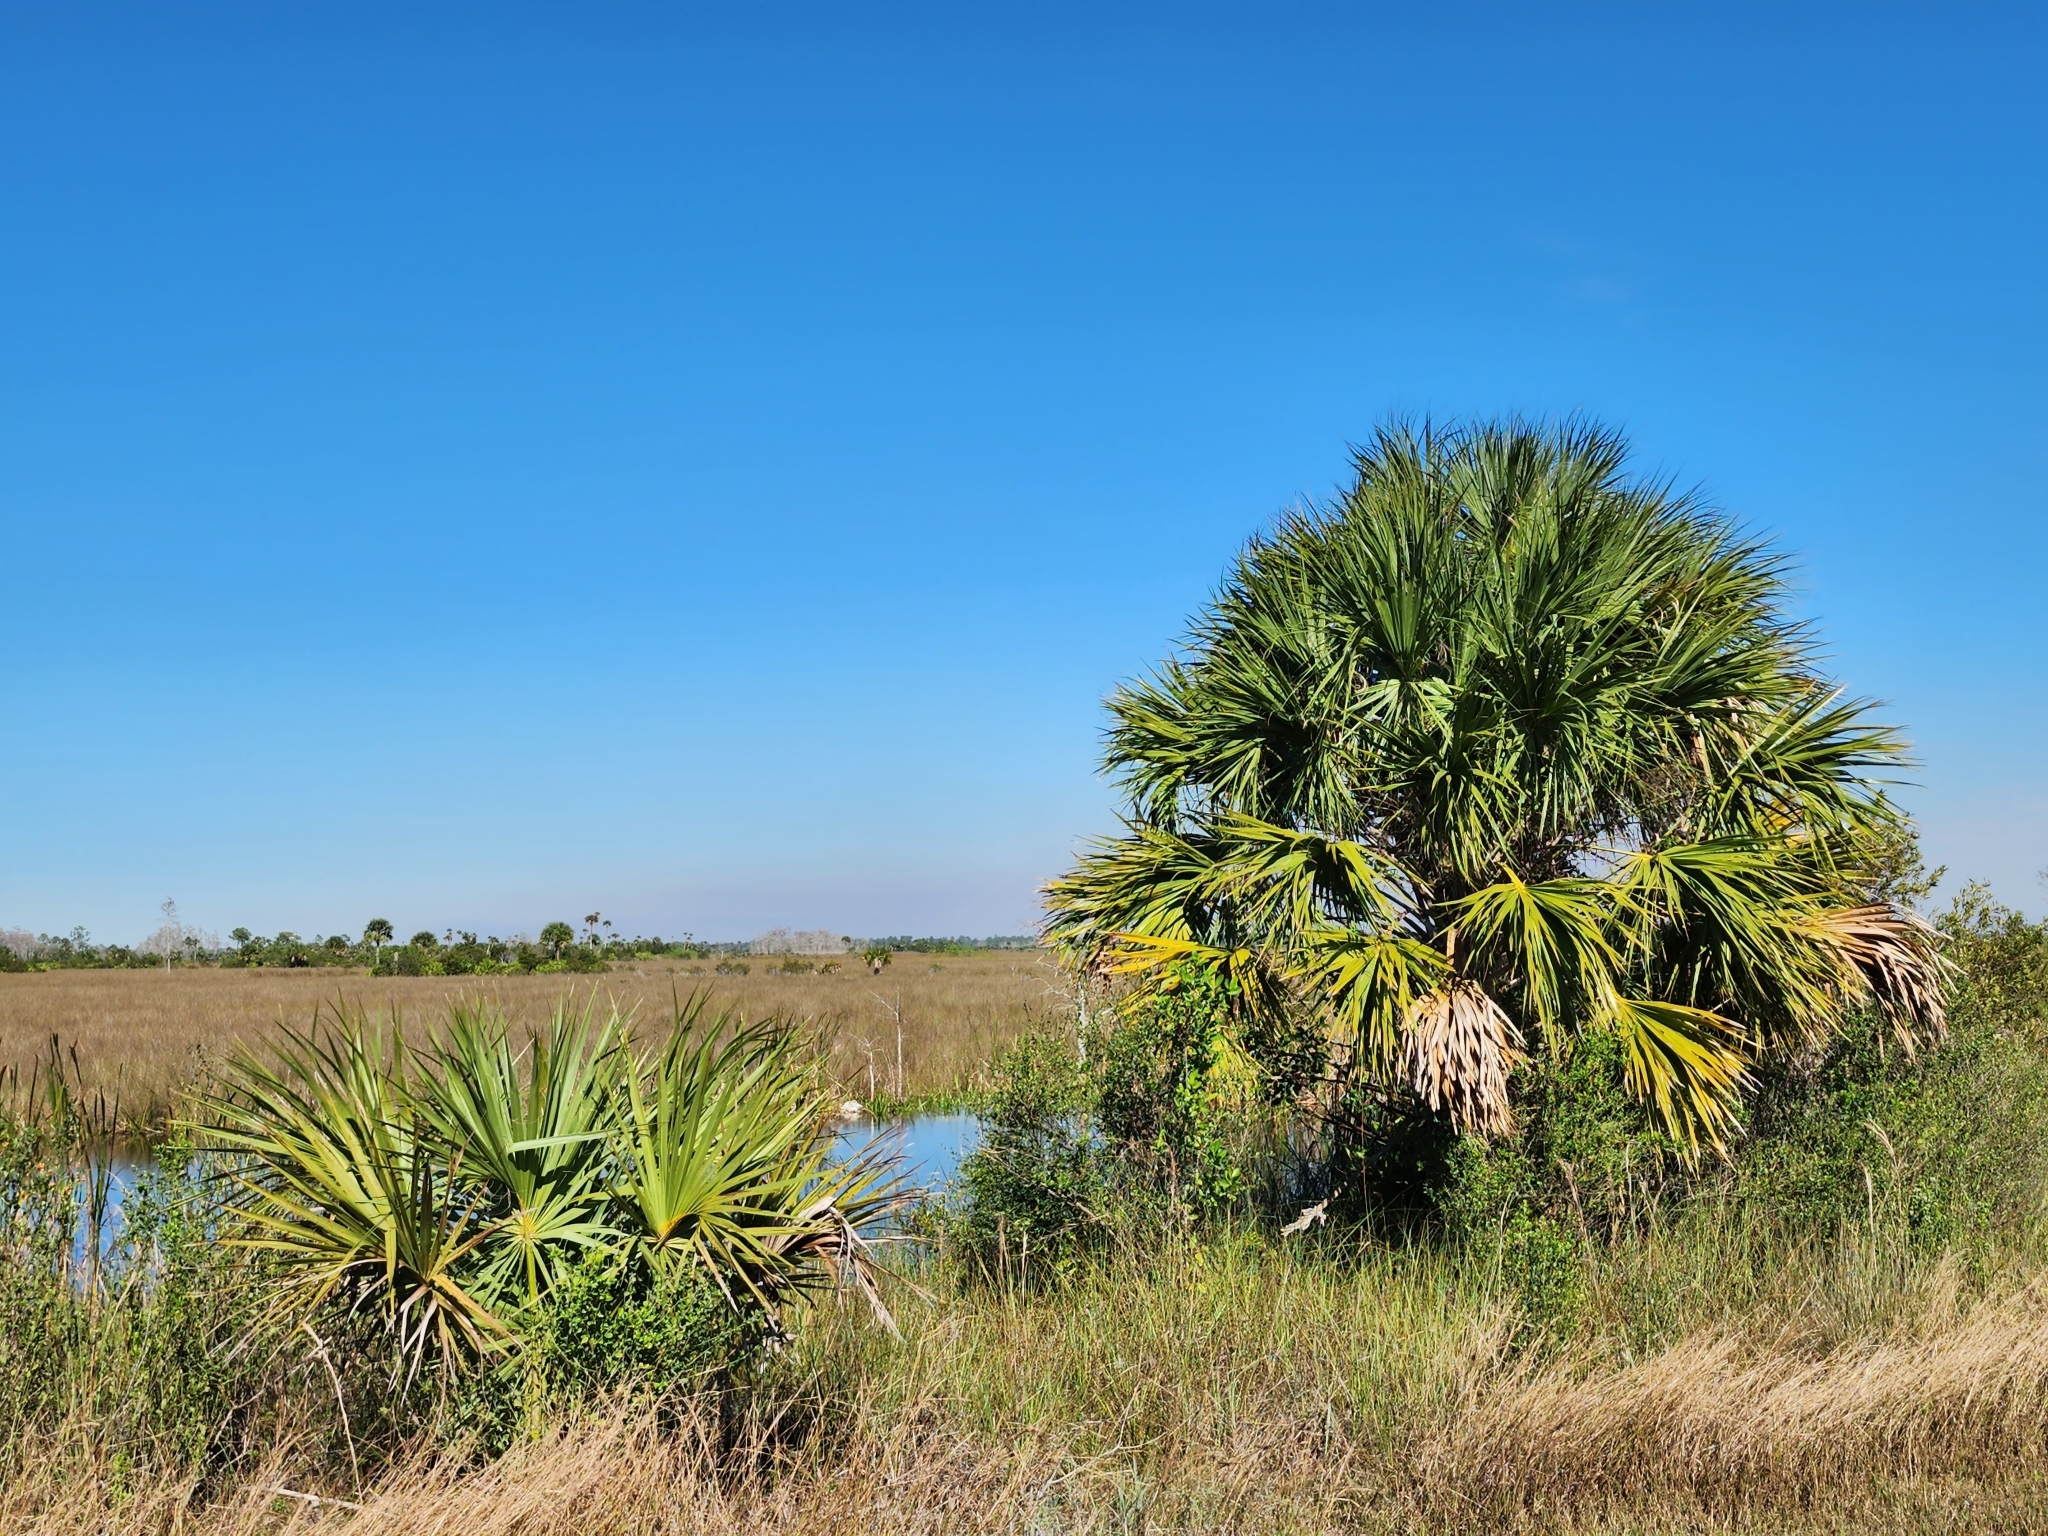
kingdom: Plantae
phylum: Tracheophyta
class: Liliopsida
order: Arecales
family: Arecaceae
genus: Sabal
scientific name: Sabal palmetto
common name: Blue palmetto
